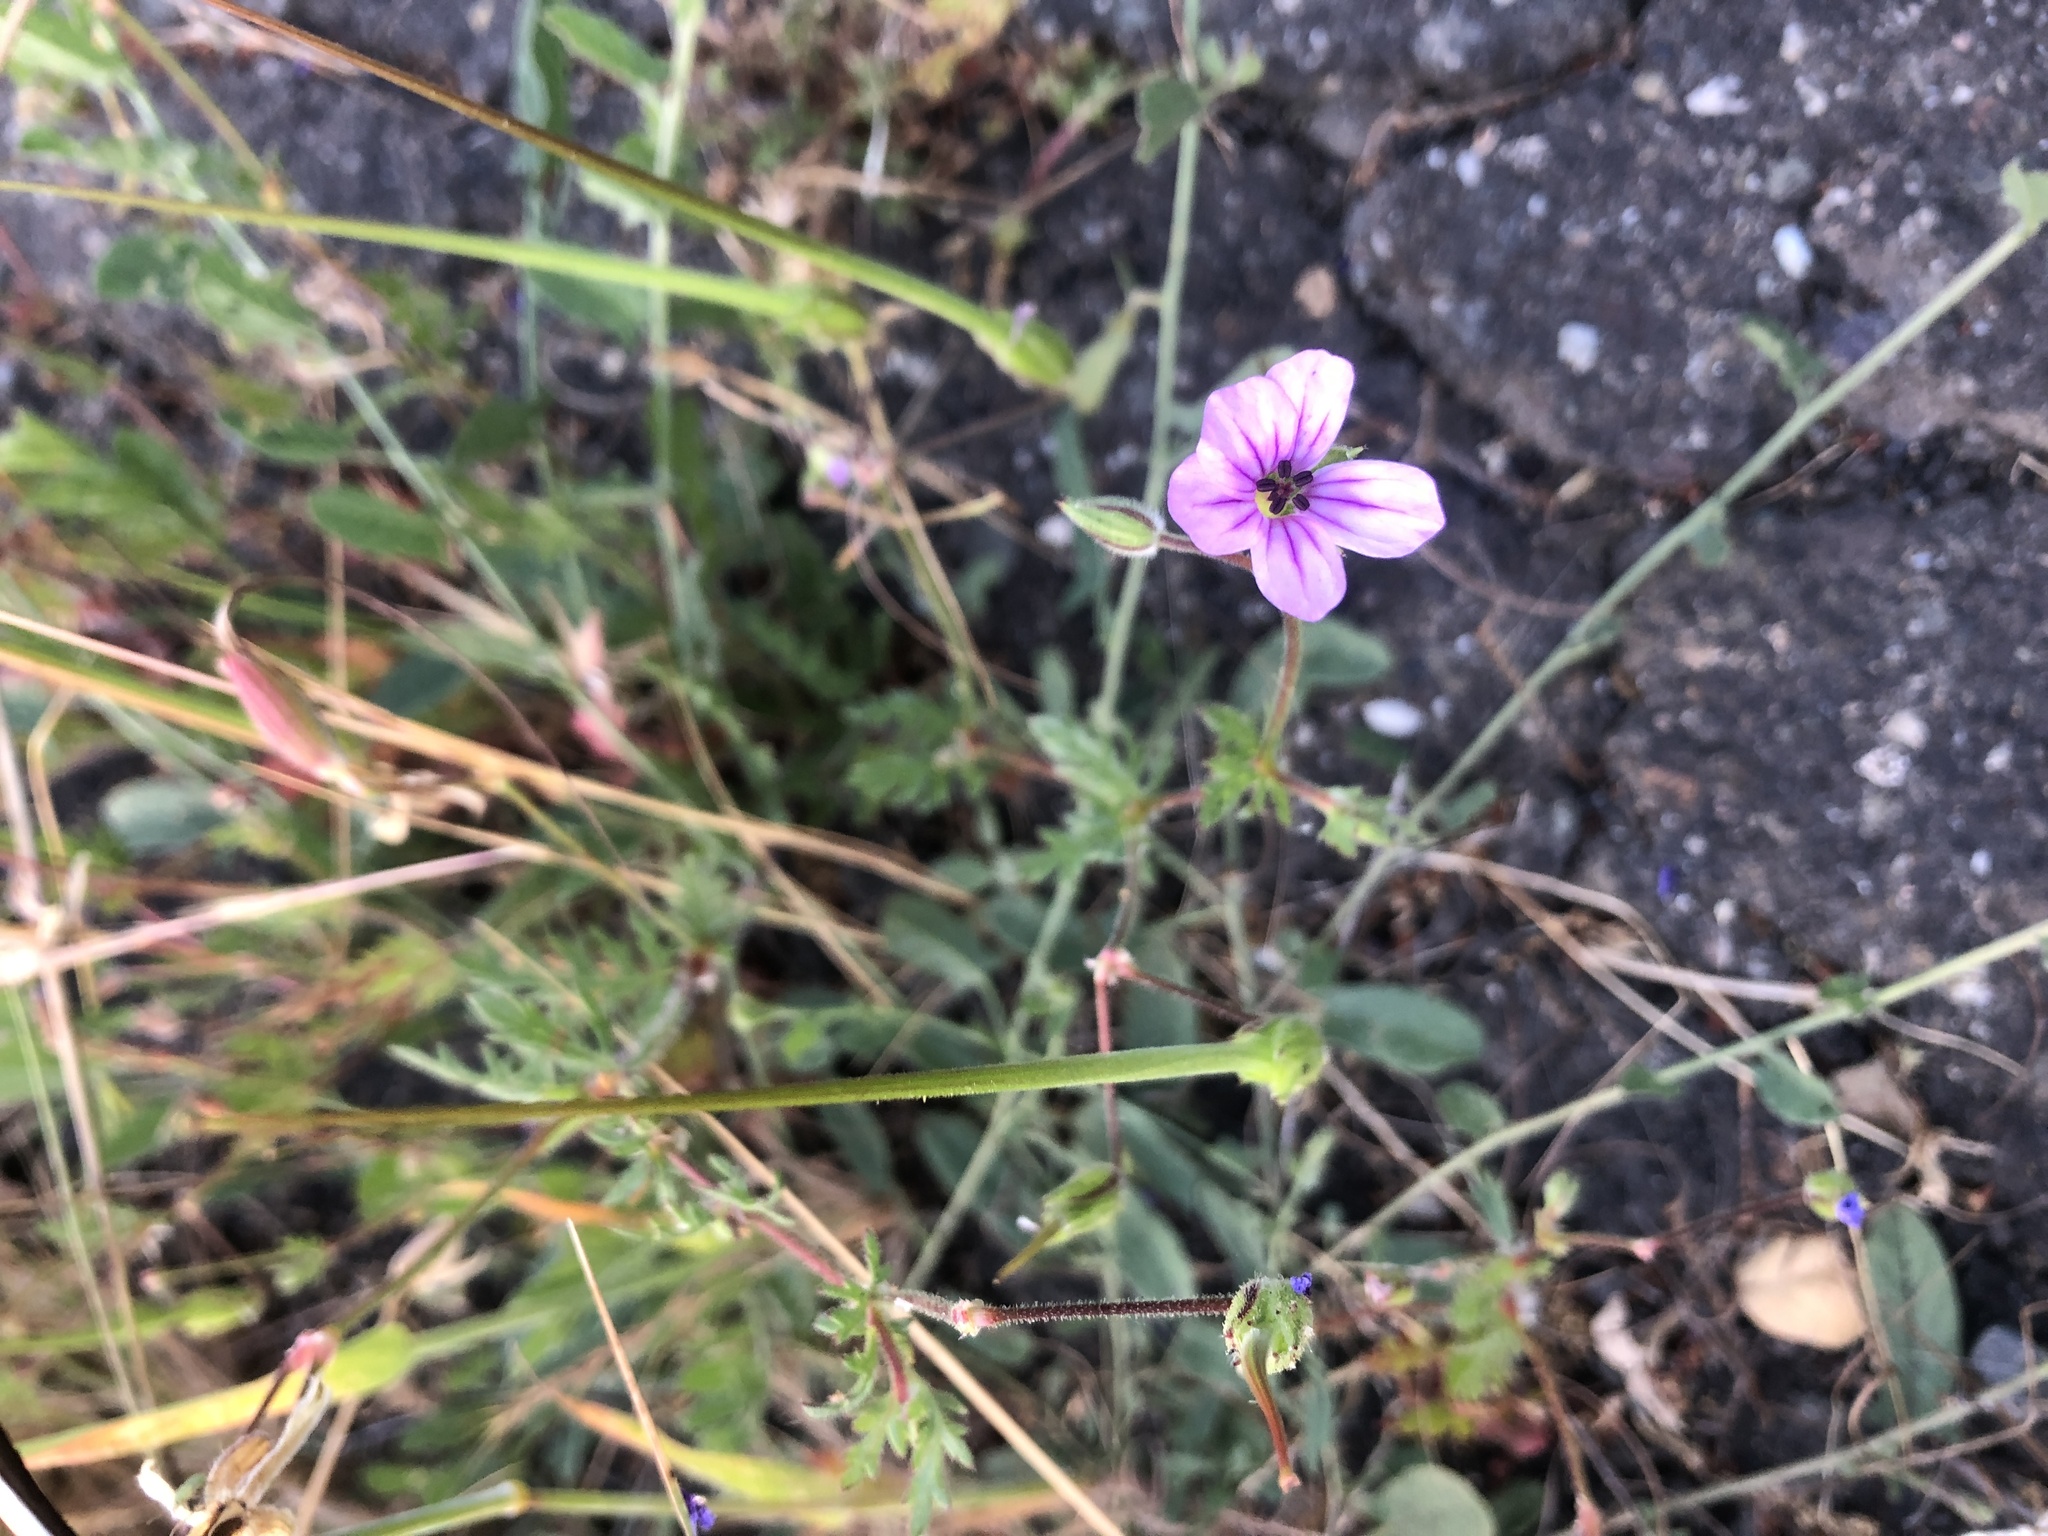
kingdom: Plantae
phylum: Tracheophyta
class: Magnoliopsida
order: Geraniales
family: Geraniaceae
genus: Erodium
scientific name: Erodium botrys
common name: Mediterranean stork's-bill
